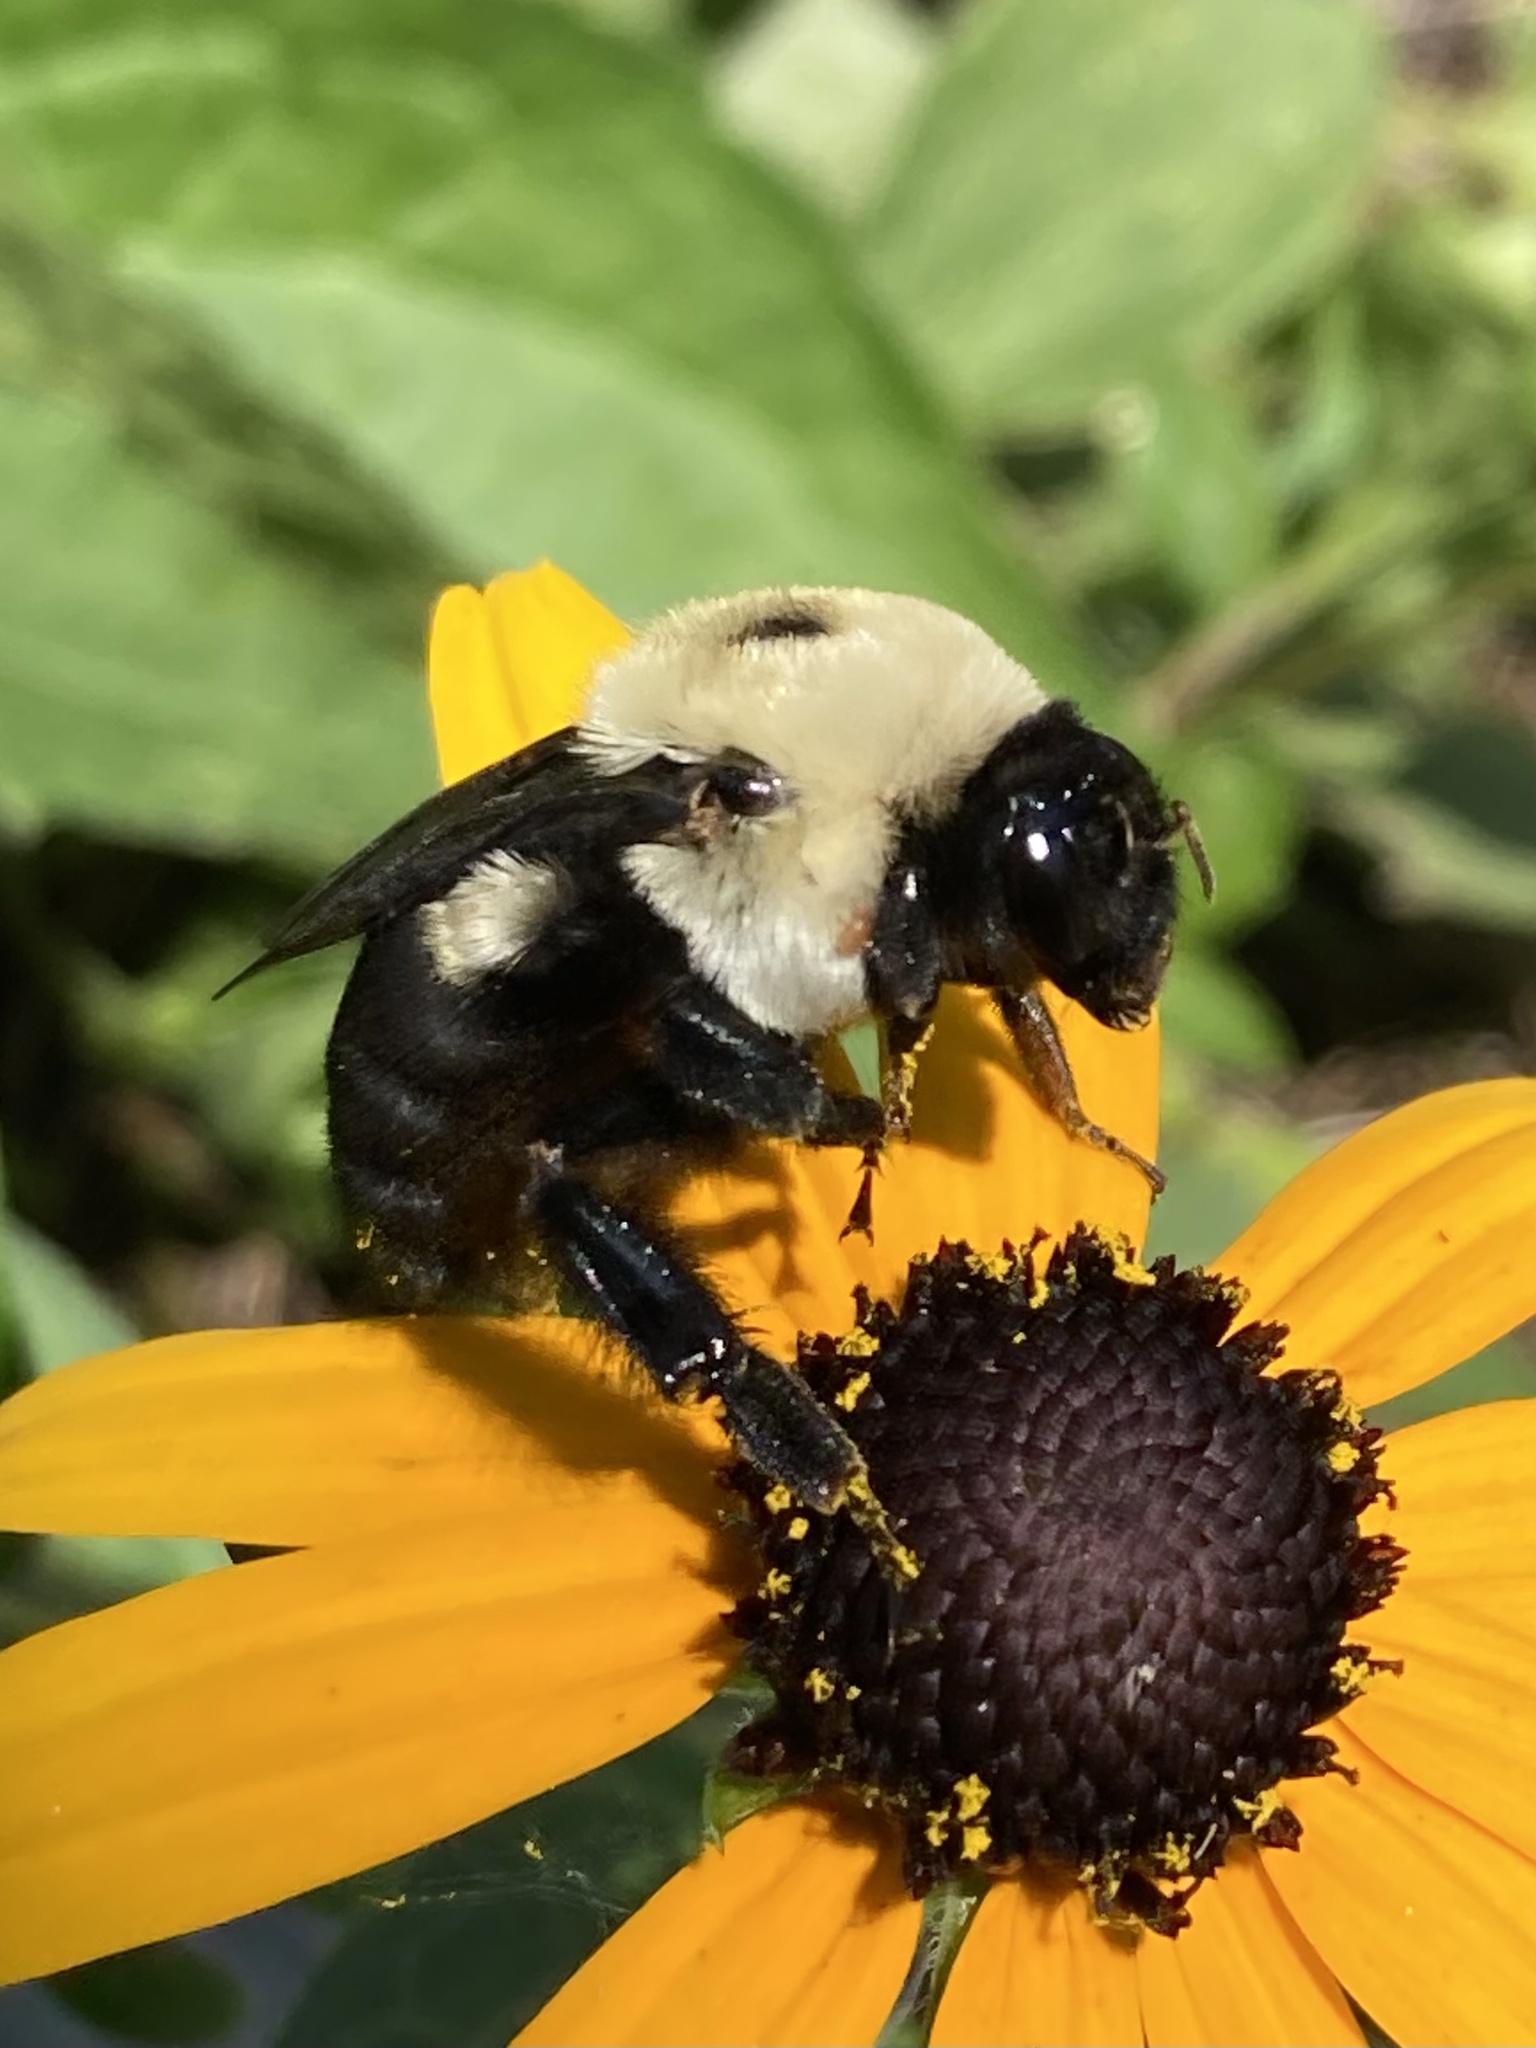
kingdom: Animalia
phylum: Arthropoda
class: Insecta
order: Hymenoptera
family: Apidae
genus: Bombus
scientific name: Bombus griseocollis
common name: Brown-belted bumble bee
